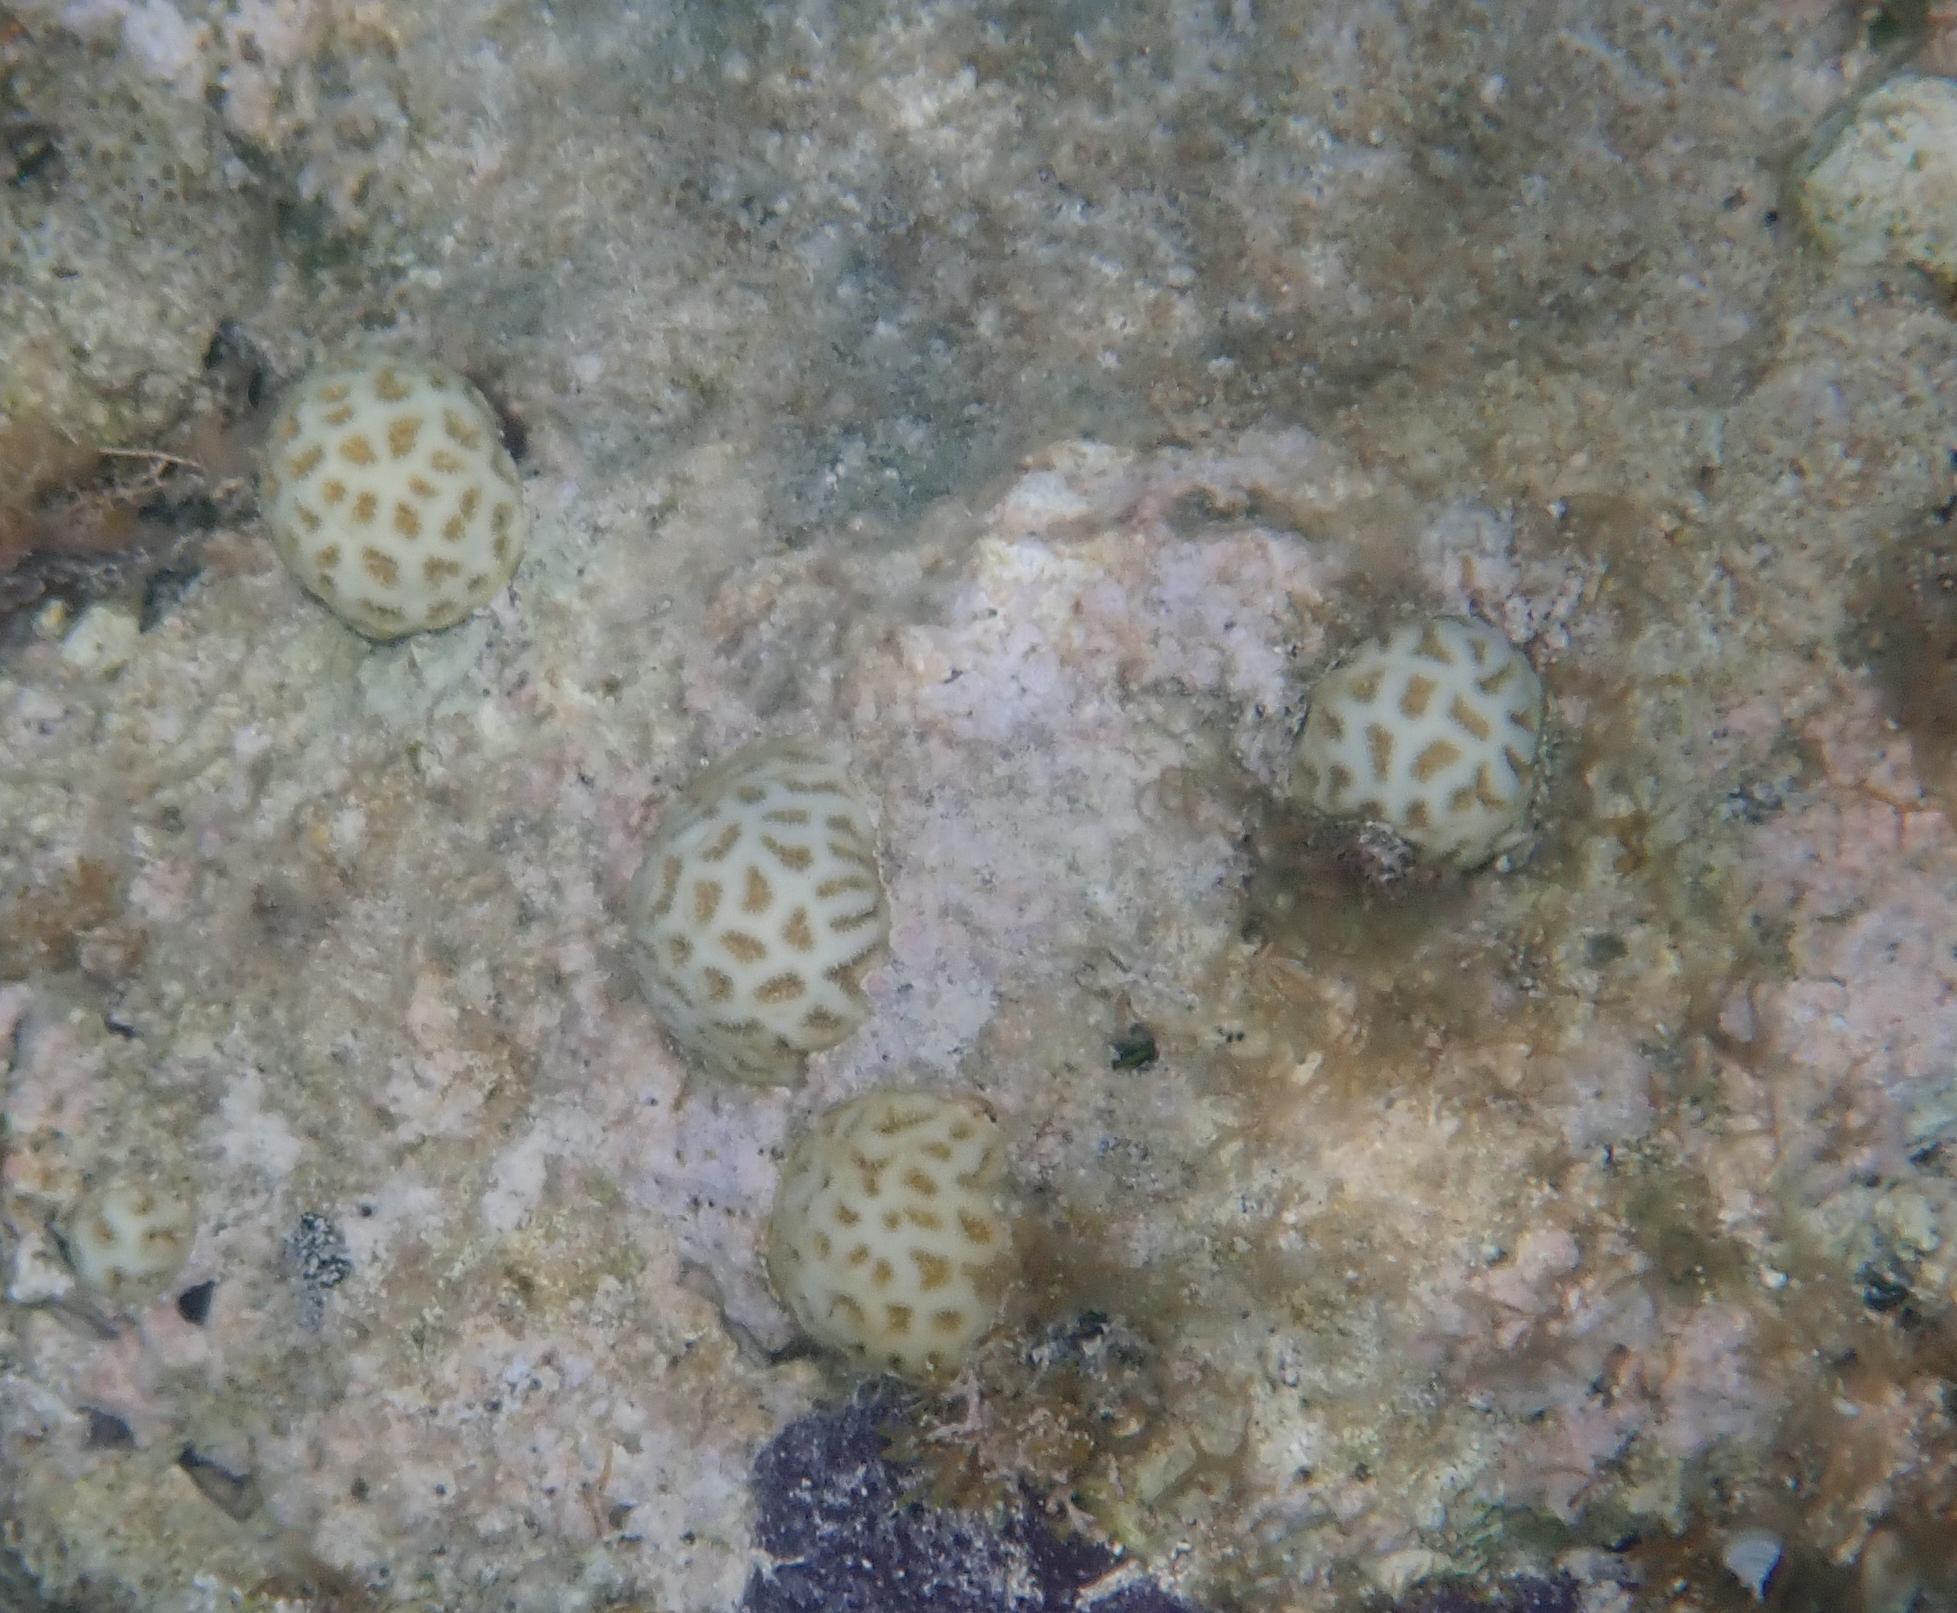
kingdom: Animalia
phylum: Cnidaria
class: Anthozoa
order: Scleractinia
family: Faviidae
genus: Favia
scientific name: Favia fragum
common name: Golfball coral
